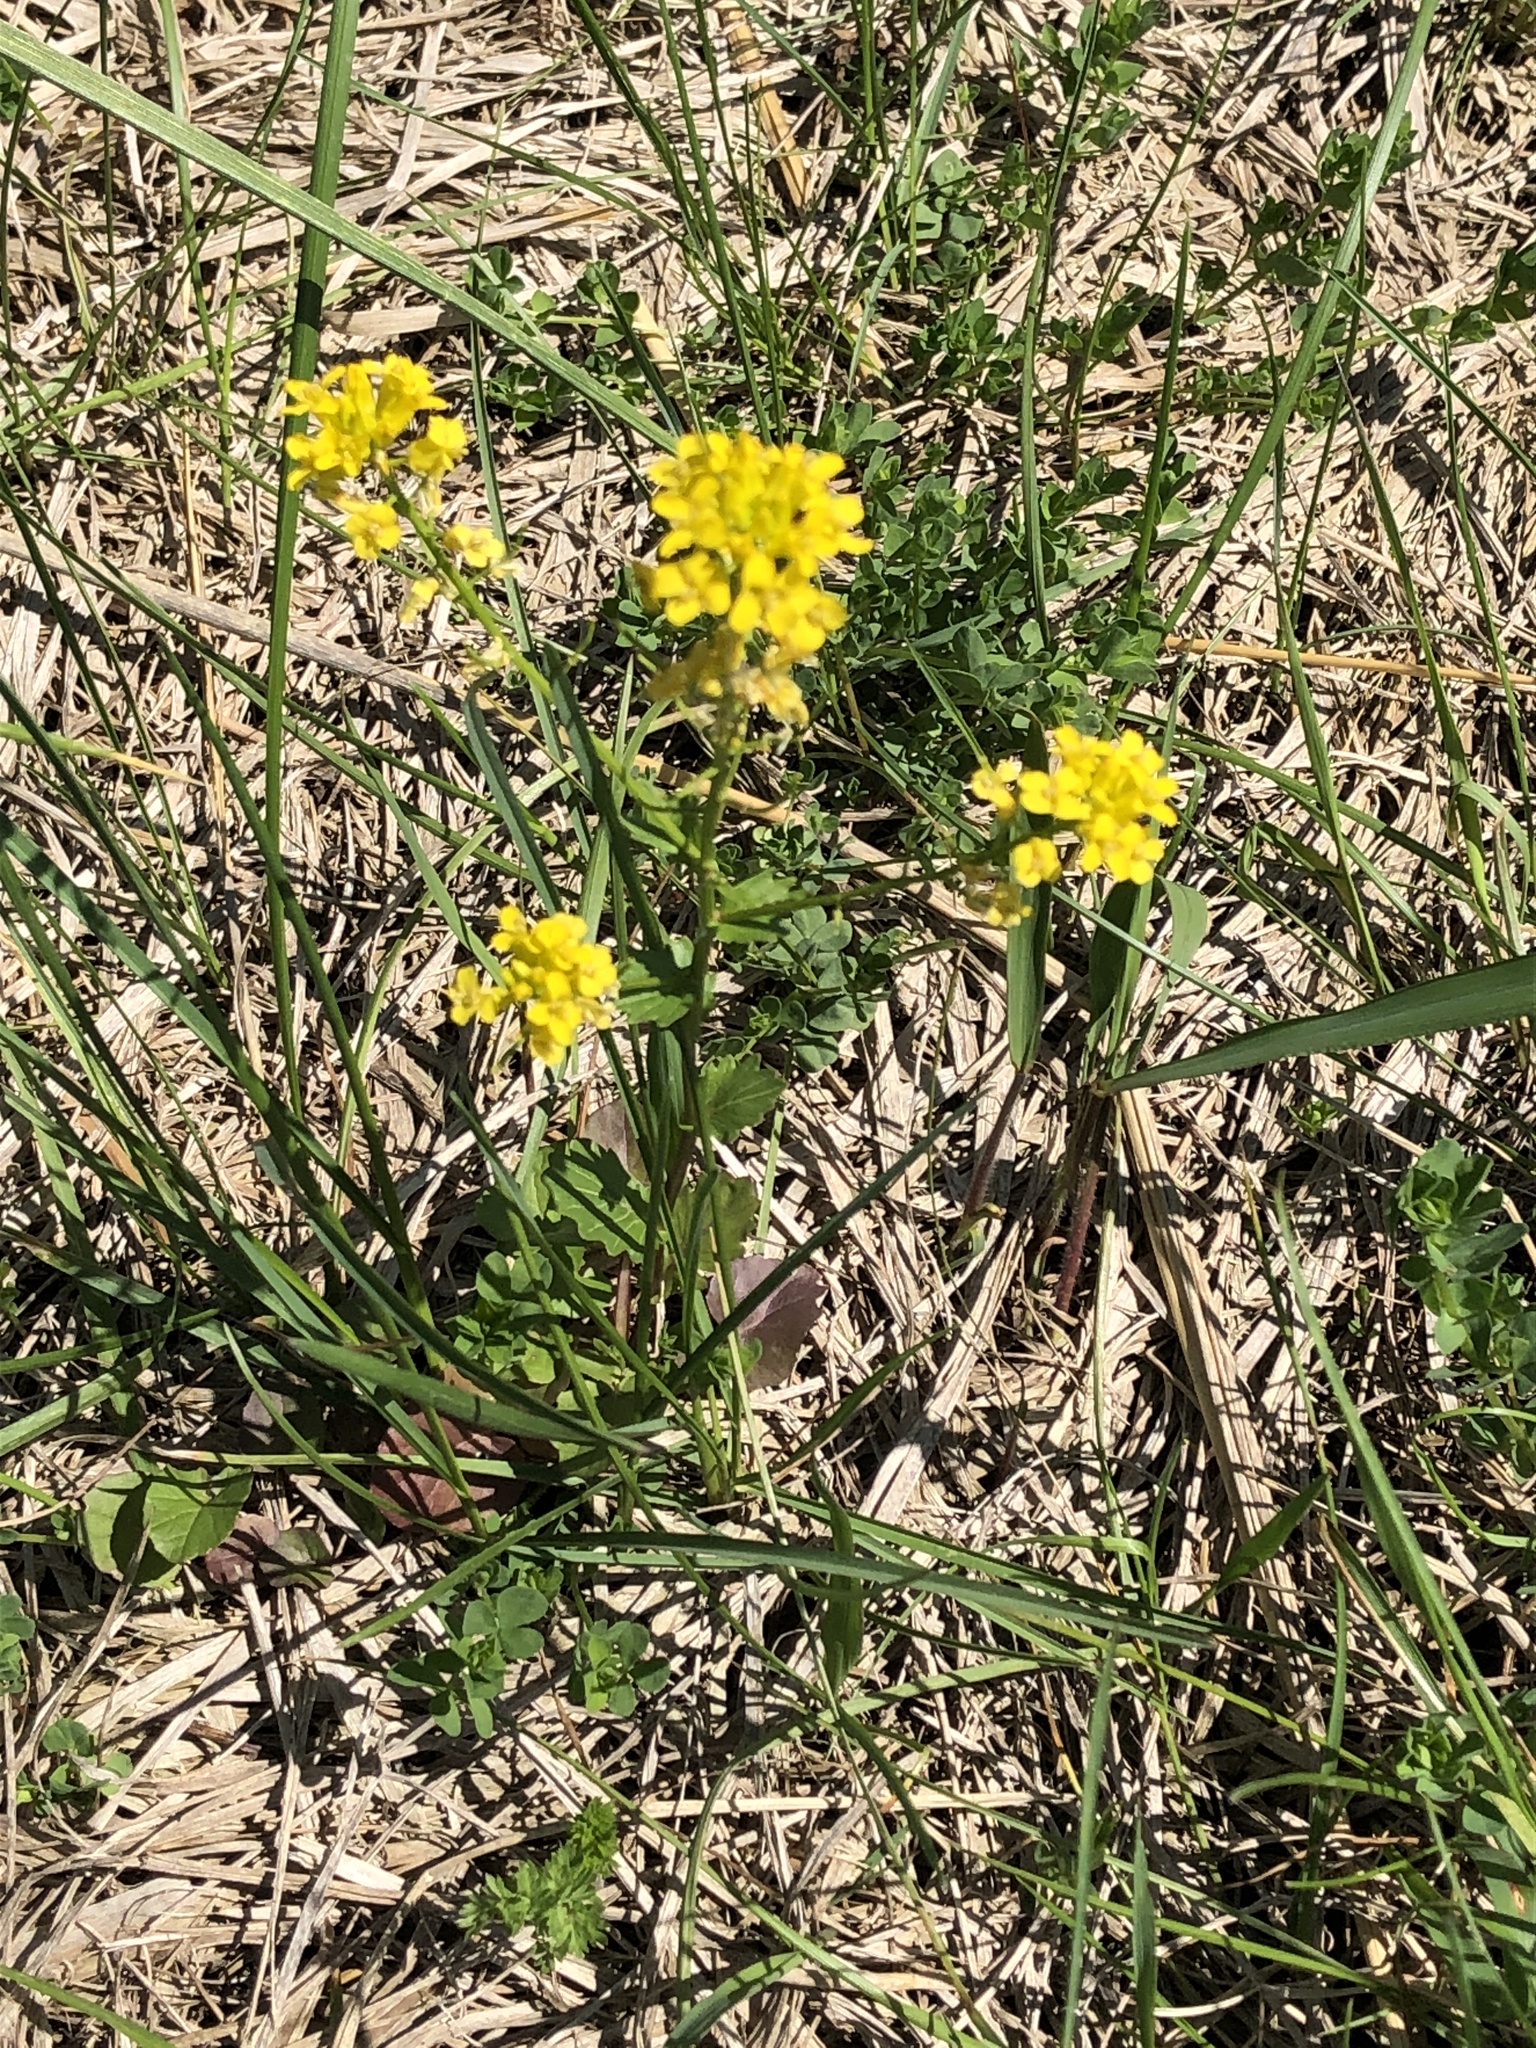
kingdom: Plantae
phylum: Tracheophyta
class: Magnoliopsida
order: Brassicales
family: Brassicaceae
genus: Barbarea
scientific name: Barbarea vulgaris
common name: Cressy-greens
